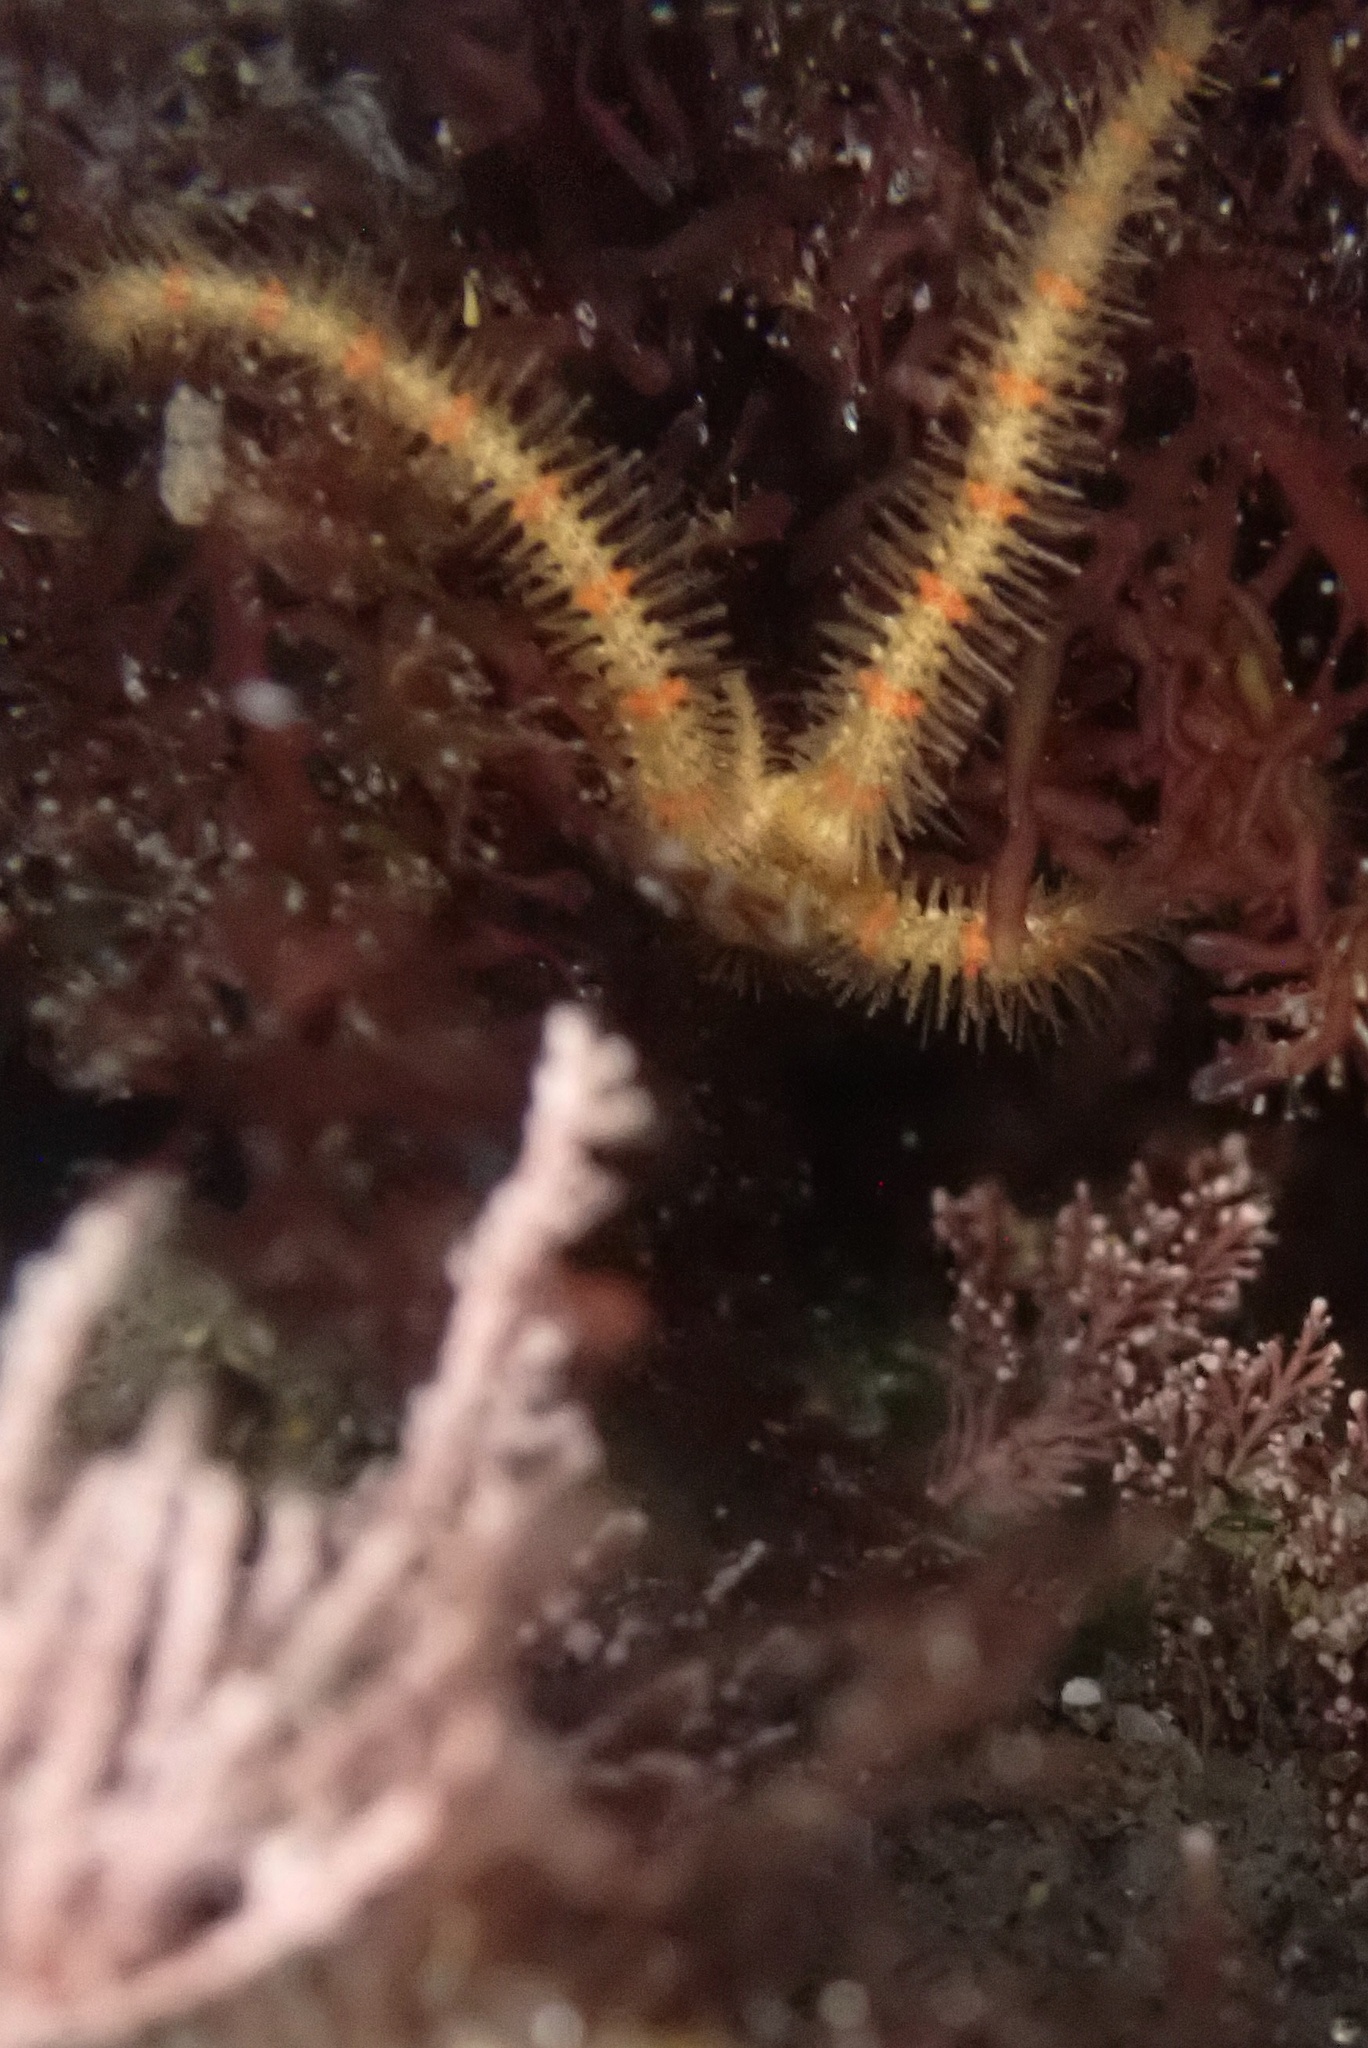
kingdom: Animalia
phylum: Echinodermata
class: Ophiuroidea
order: Amphilepidida
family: Ophiotrichidae
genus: Ophiothrix
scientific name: Ophiothrix spiculata
